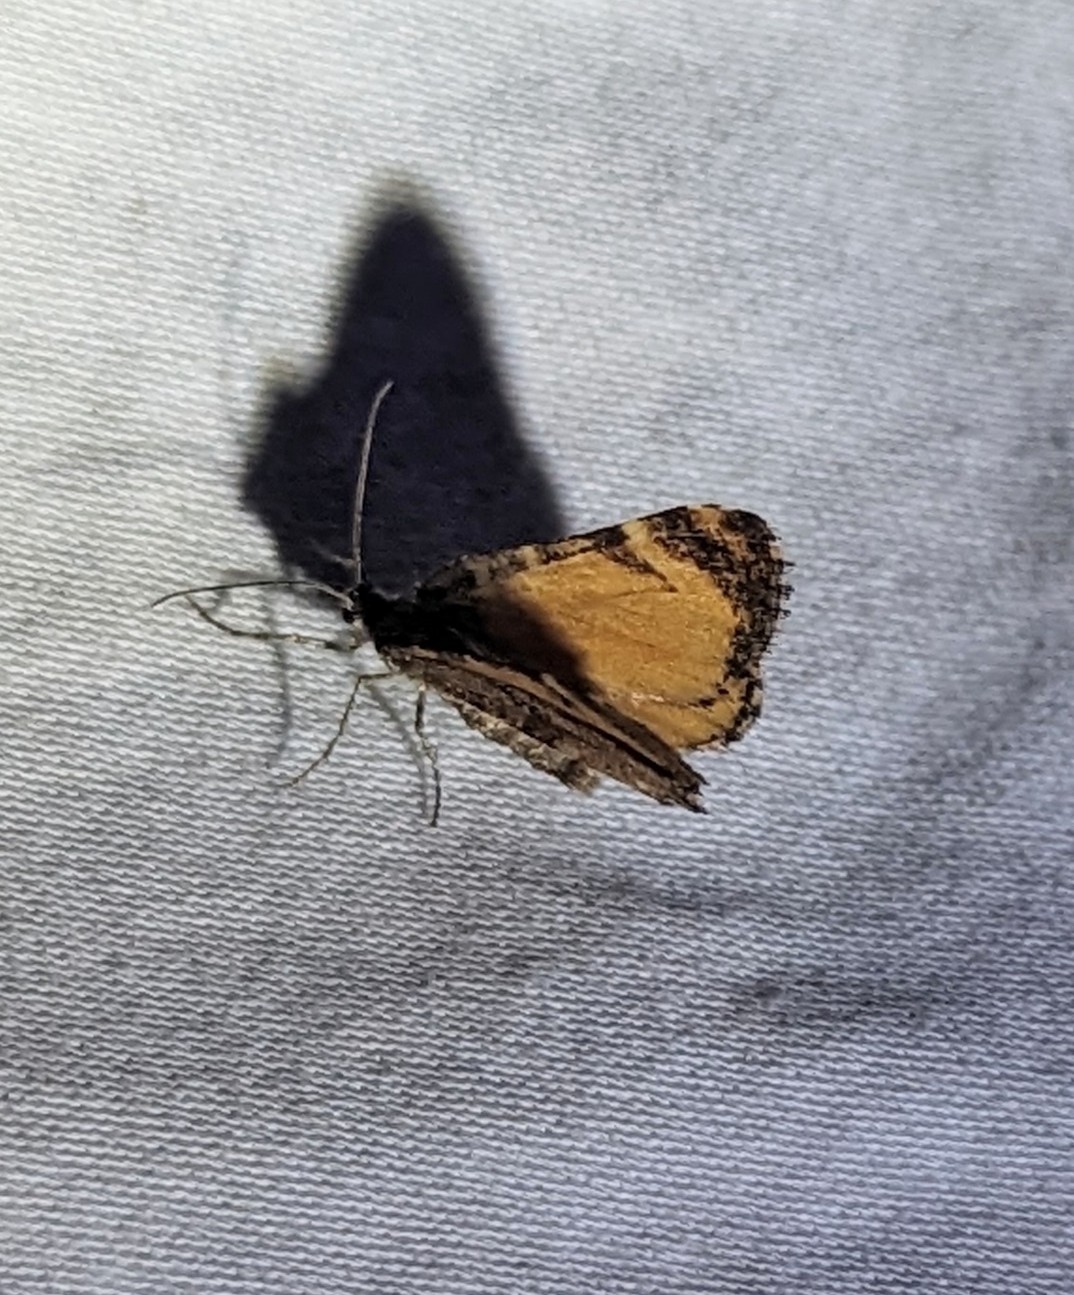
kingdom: Animalia
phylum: Arthropoda
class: Insecta
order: Lepidoptera
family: Geometridae
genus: Stamnodes
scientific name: Stamnodes topazata
